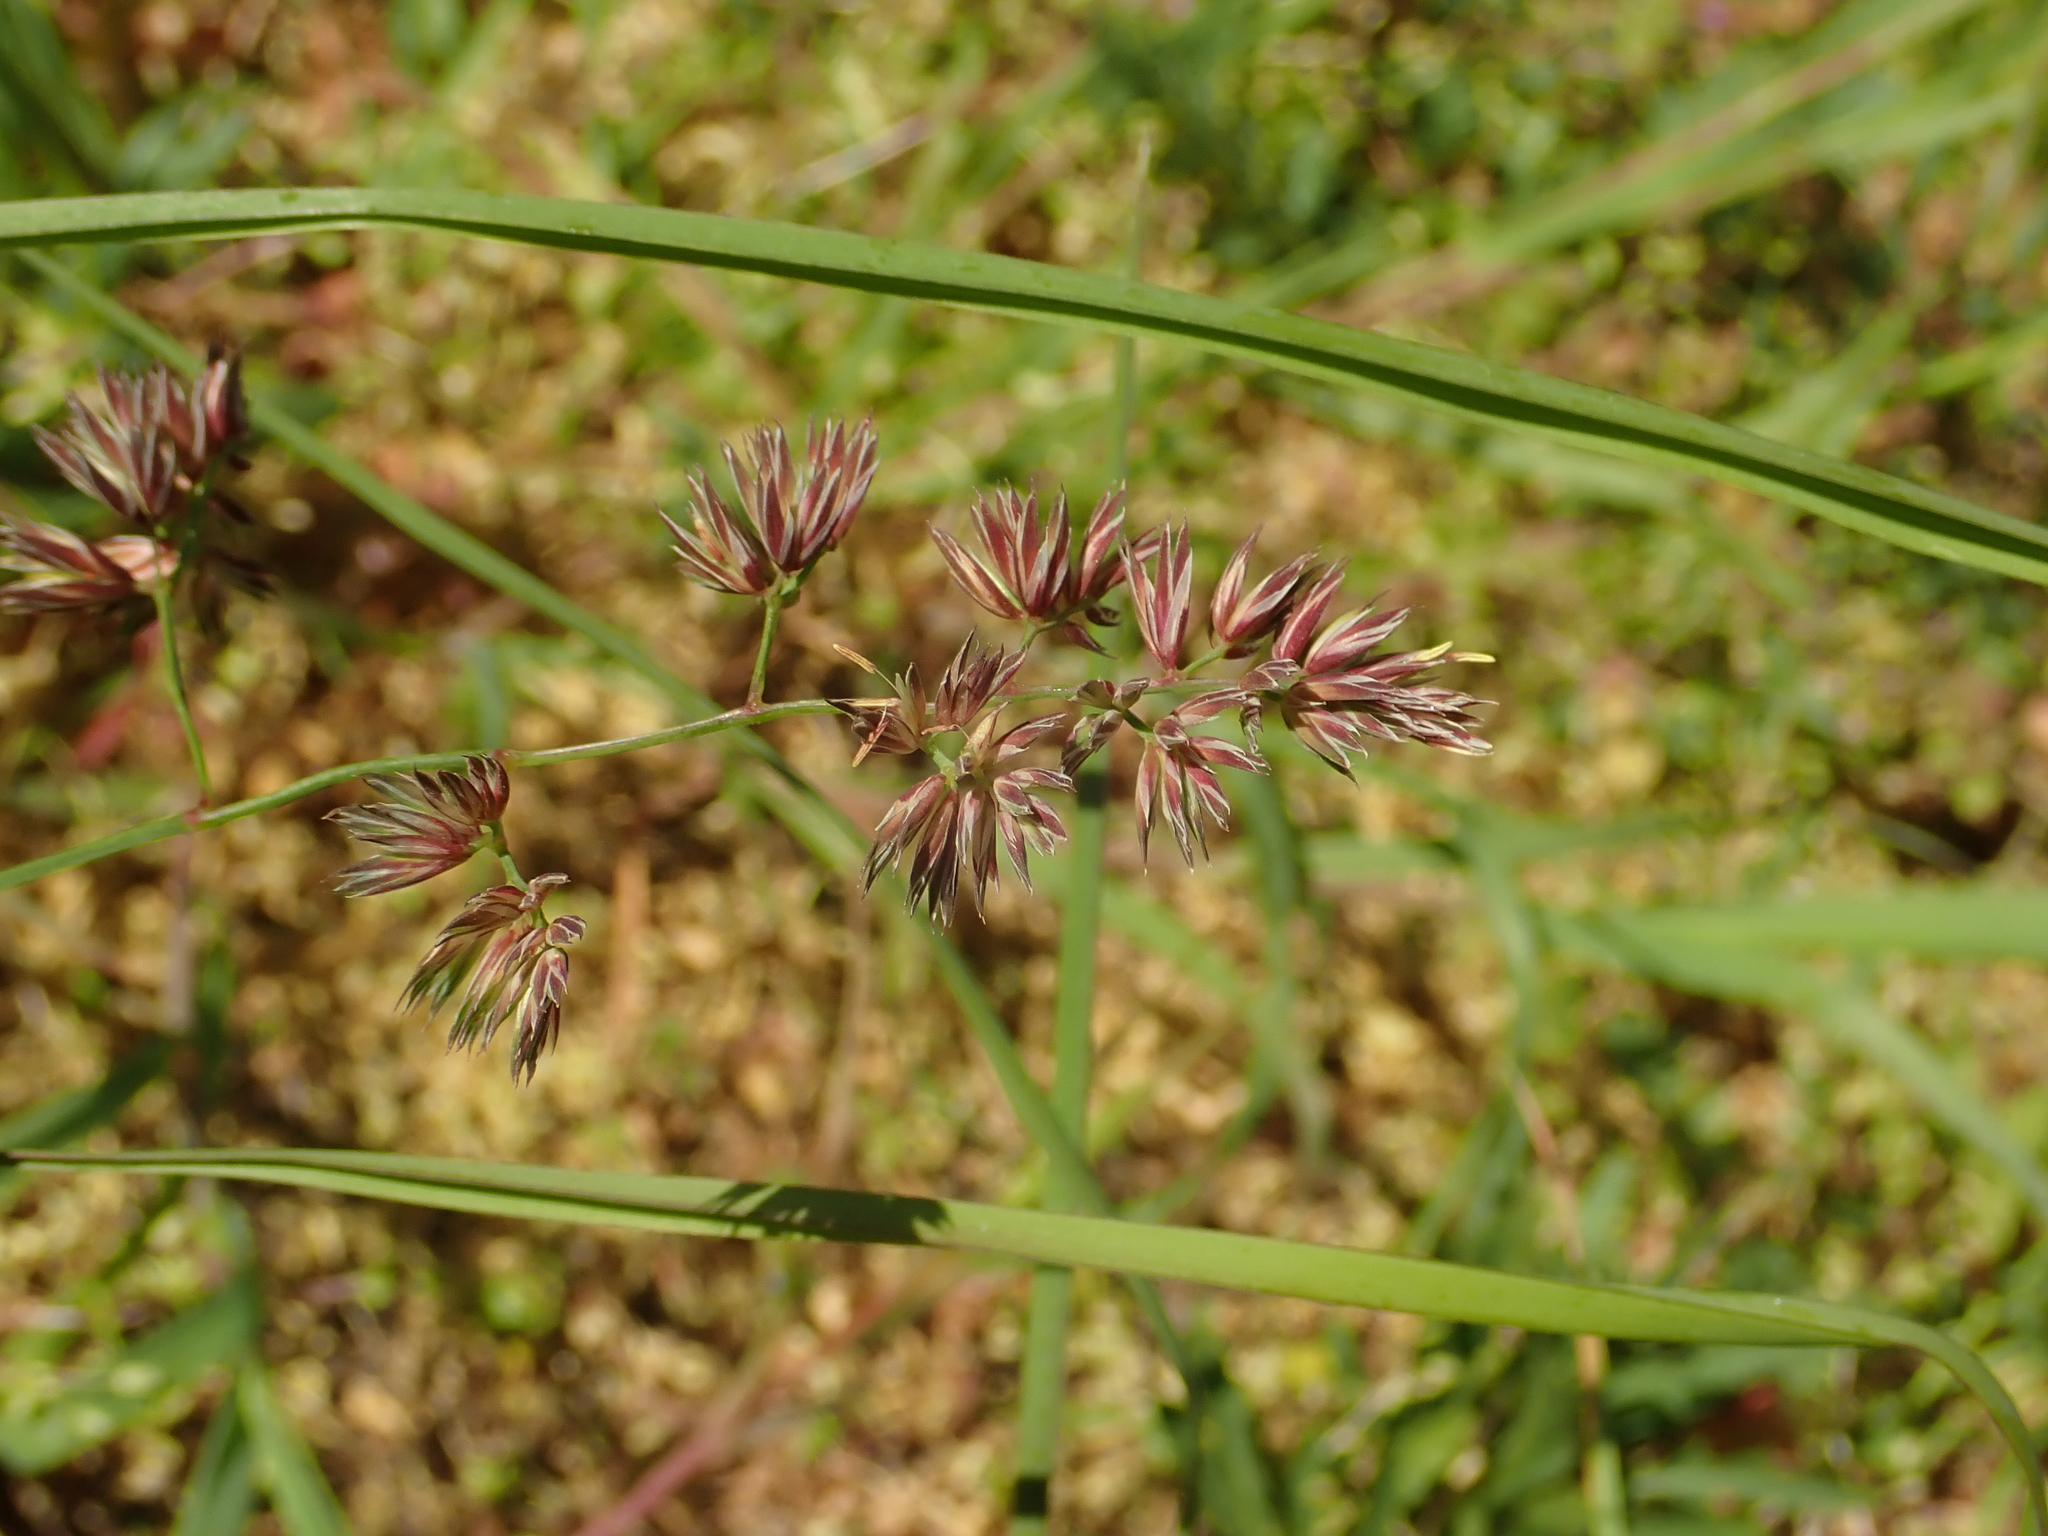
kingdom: Plantae
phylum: Tracheophyta
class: Liliopsida
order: Poales
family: Poaceae
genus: Dactylis
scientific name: Dactylis glomerata
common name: Orchardgrass
